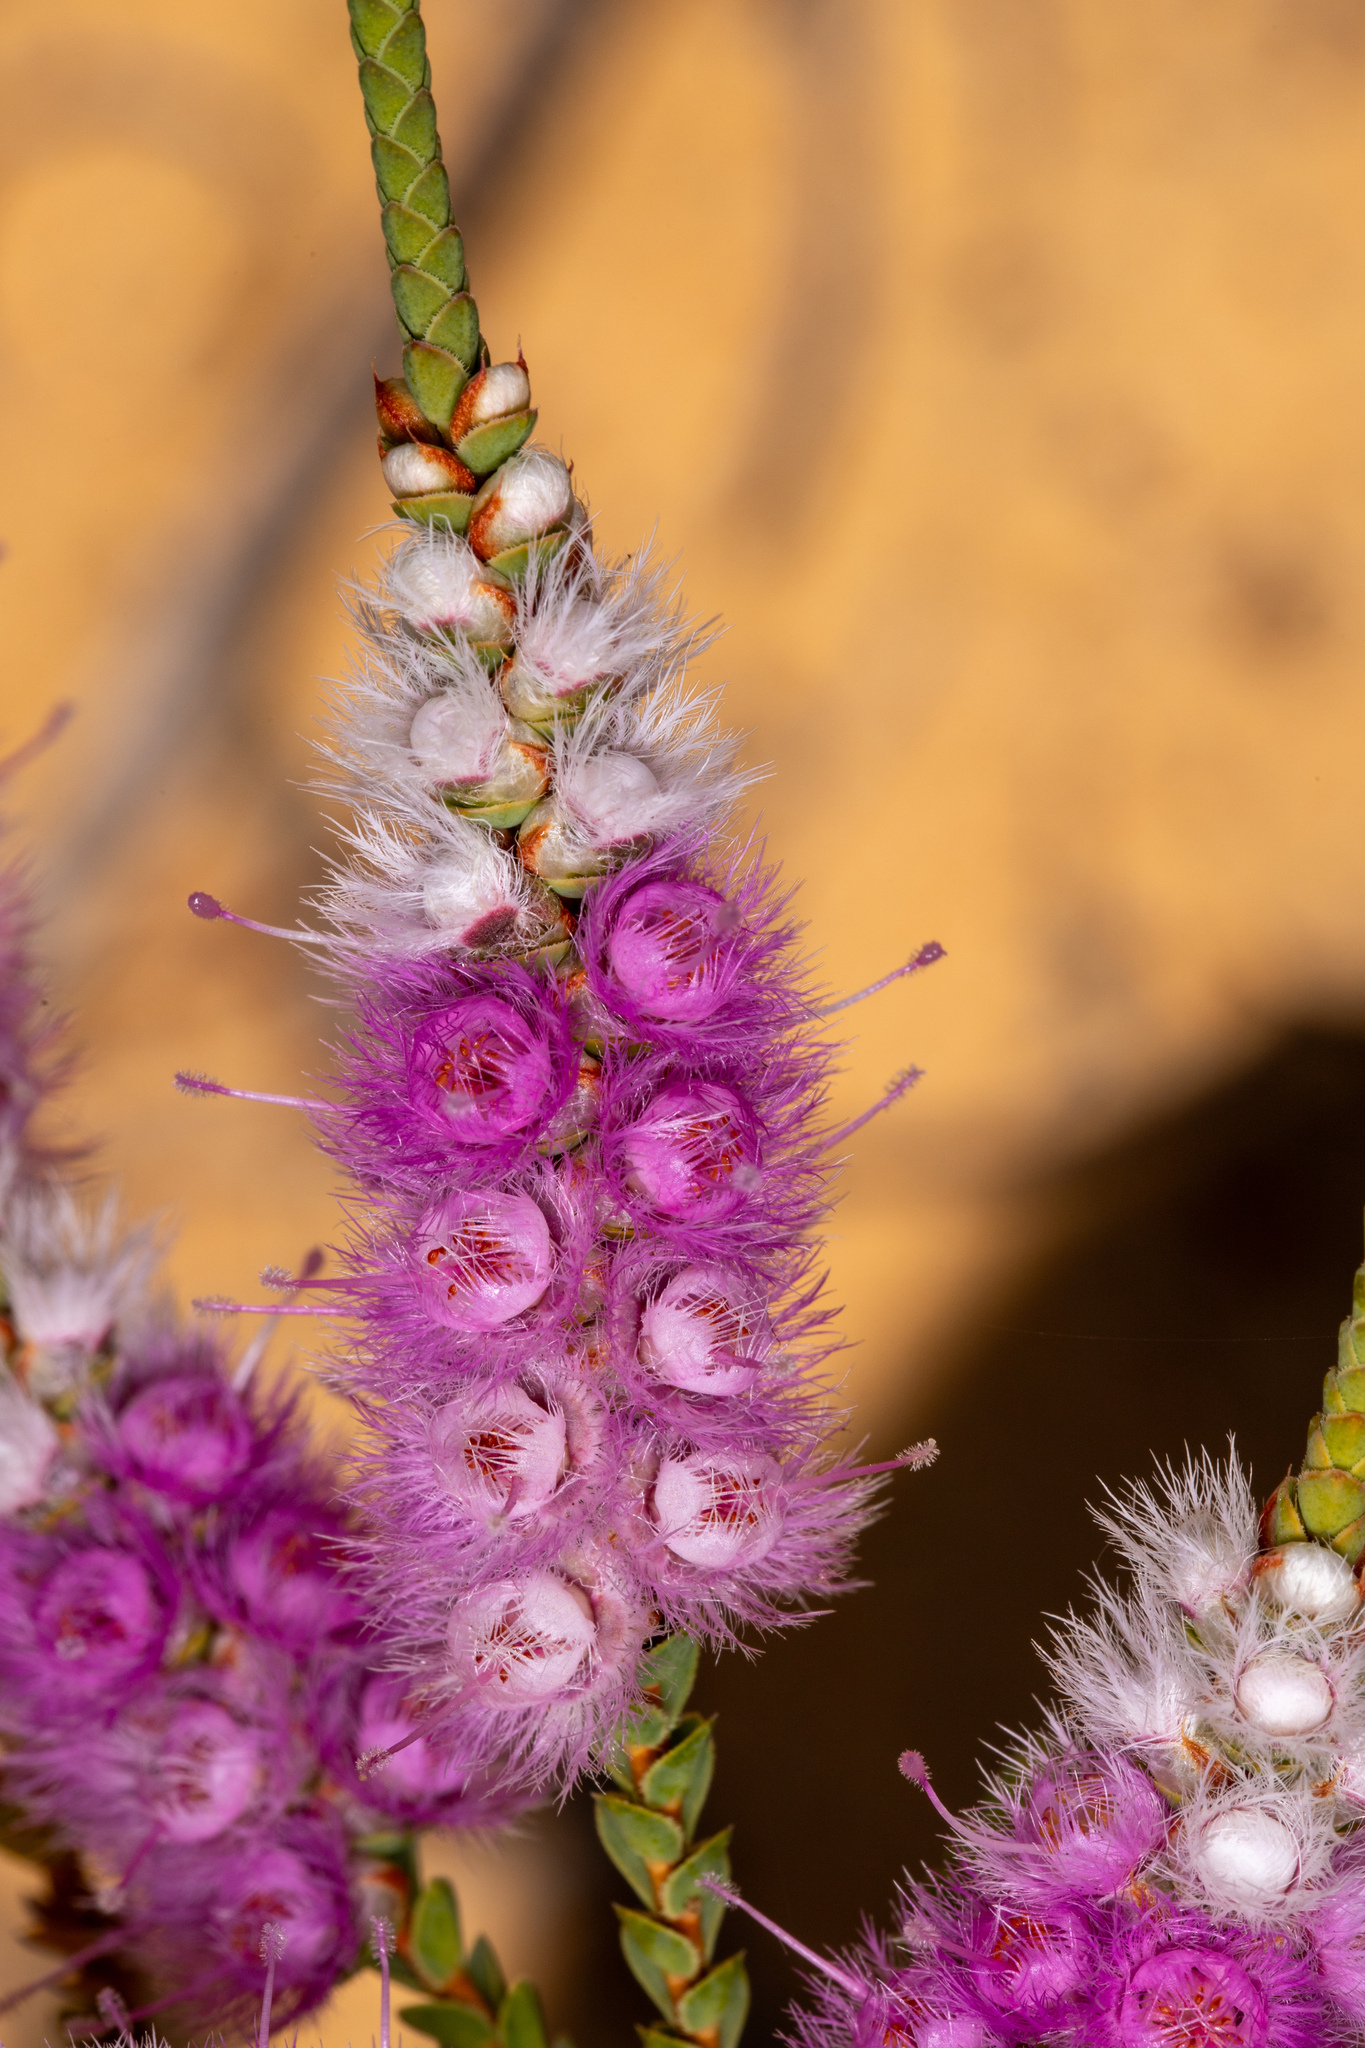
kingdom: Plantae
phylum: Tracheophyta
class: Magnoliopsida
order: Myrtales
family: Myrtaceae
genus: Verticordia
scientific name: Verticordia spicata
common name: Spike feather-flower
